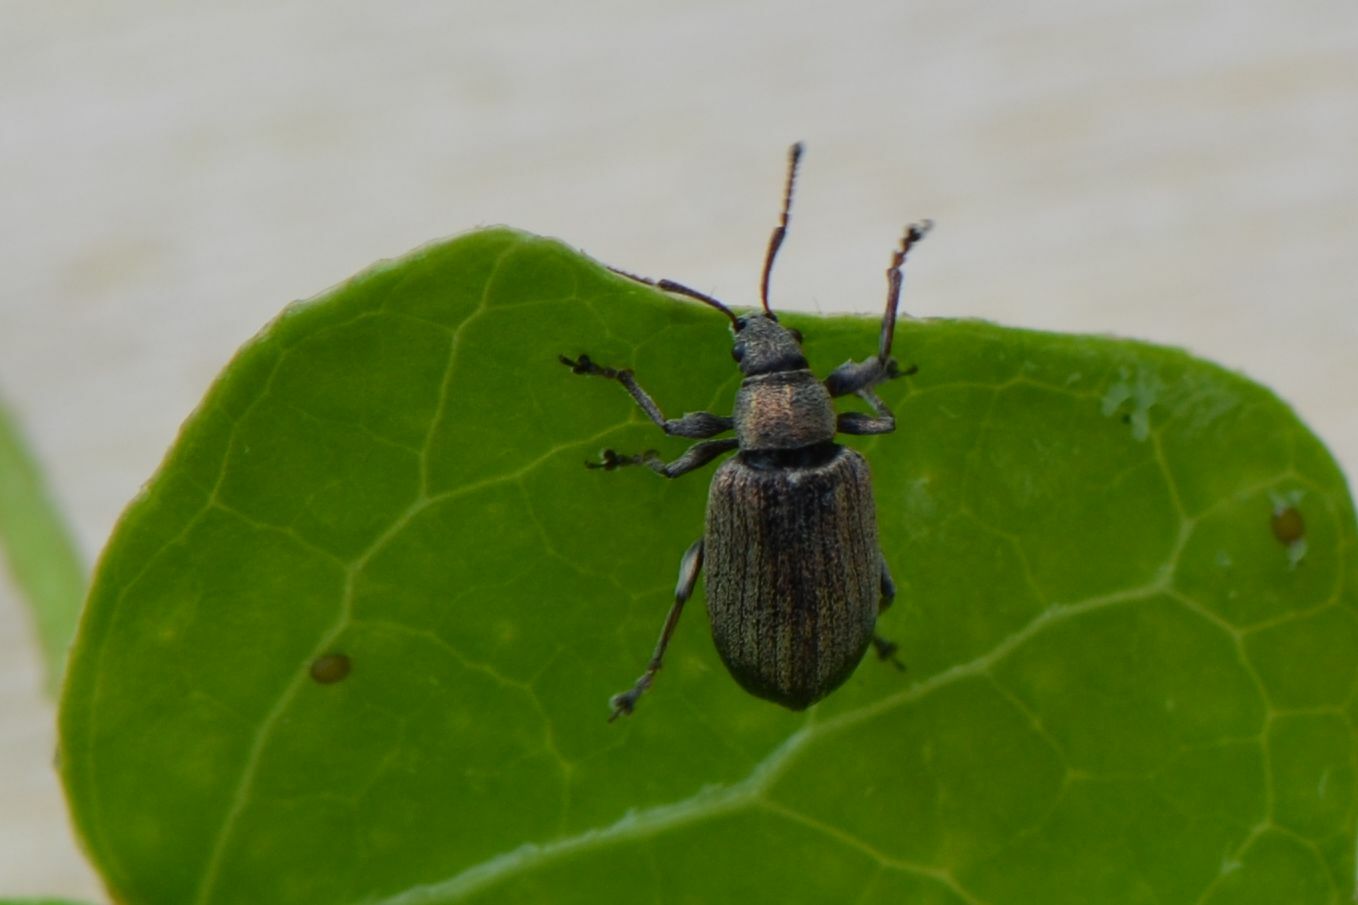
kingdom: Animalia
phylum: Arthropoda
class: Insecta
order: Coleoptera
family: Curculionidae
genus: Phyllobius
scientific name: Phyllobius pyri
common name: Common leaf weevil
